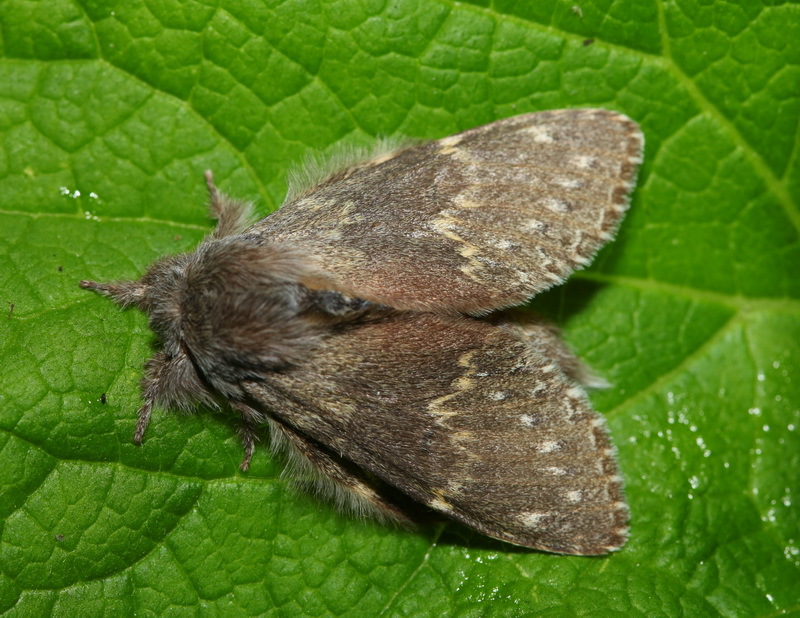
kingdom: Animalia
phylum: Arthropoda
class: Insecta
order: Lepidoptera
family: Notodontidae
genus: Stauropus
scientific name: Stauropus fagi
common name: Lobster moth
